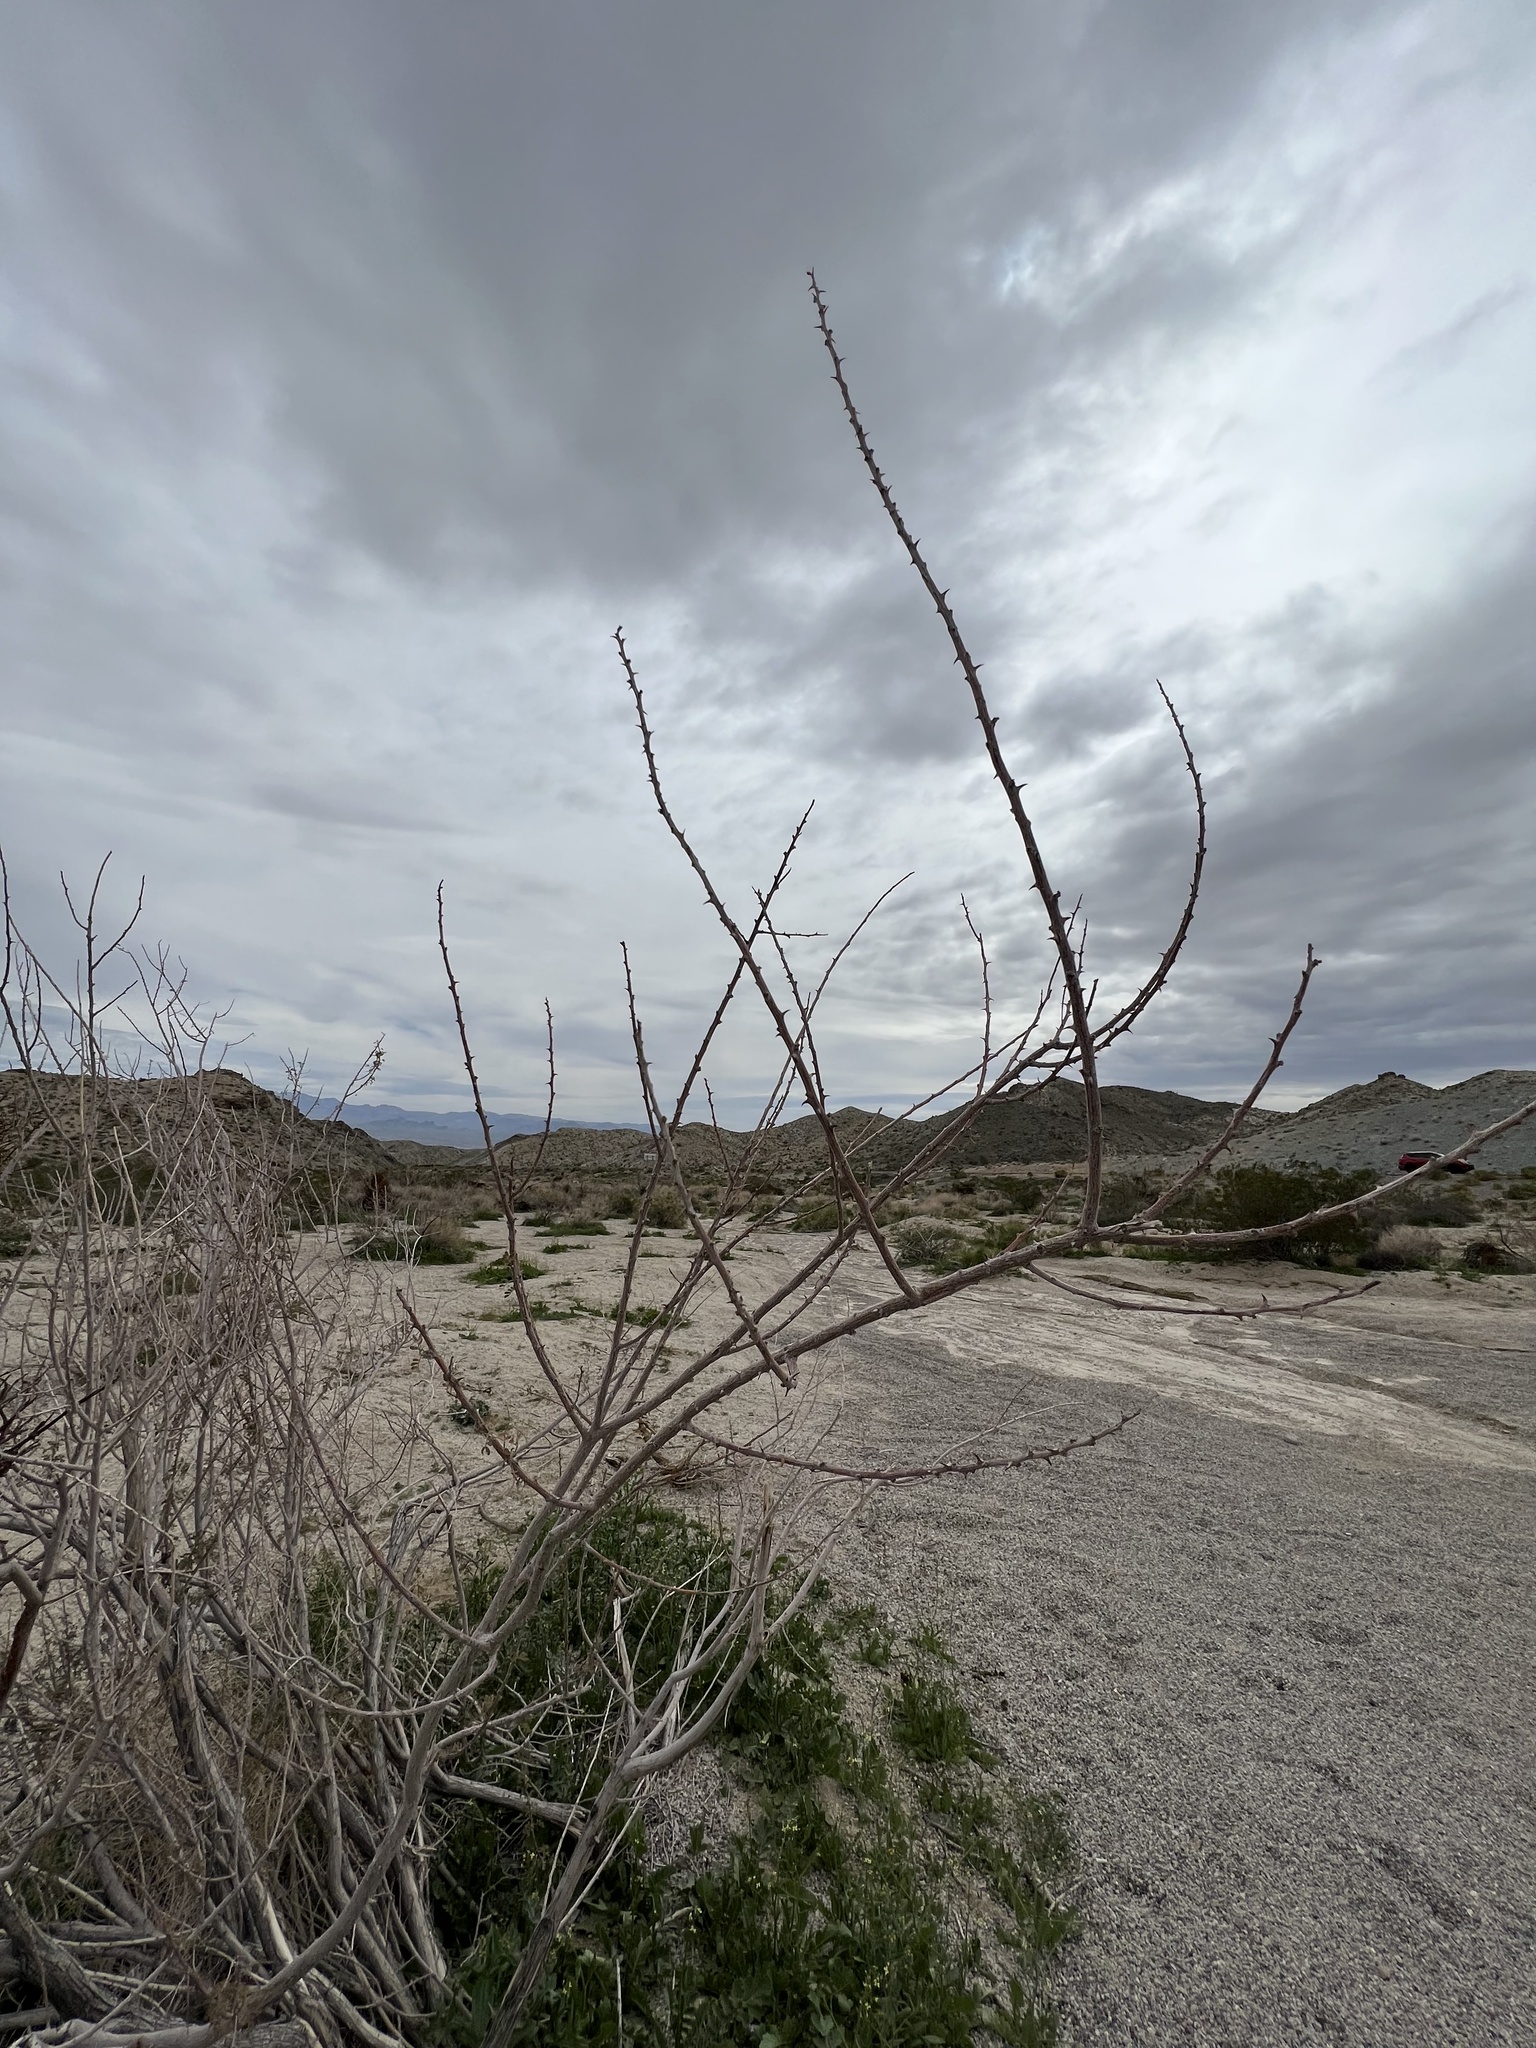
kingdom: Plantae
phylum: Tracheophyta
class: Magnoliopsida
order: Fabales
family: Fabaceae
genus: Senegalia
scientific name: Senegalia greggii
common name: Texas-mimosa
